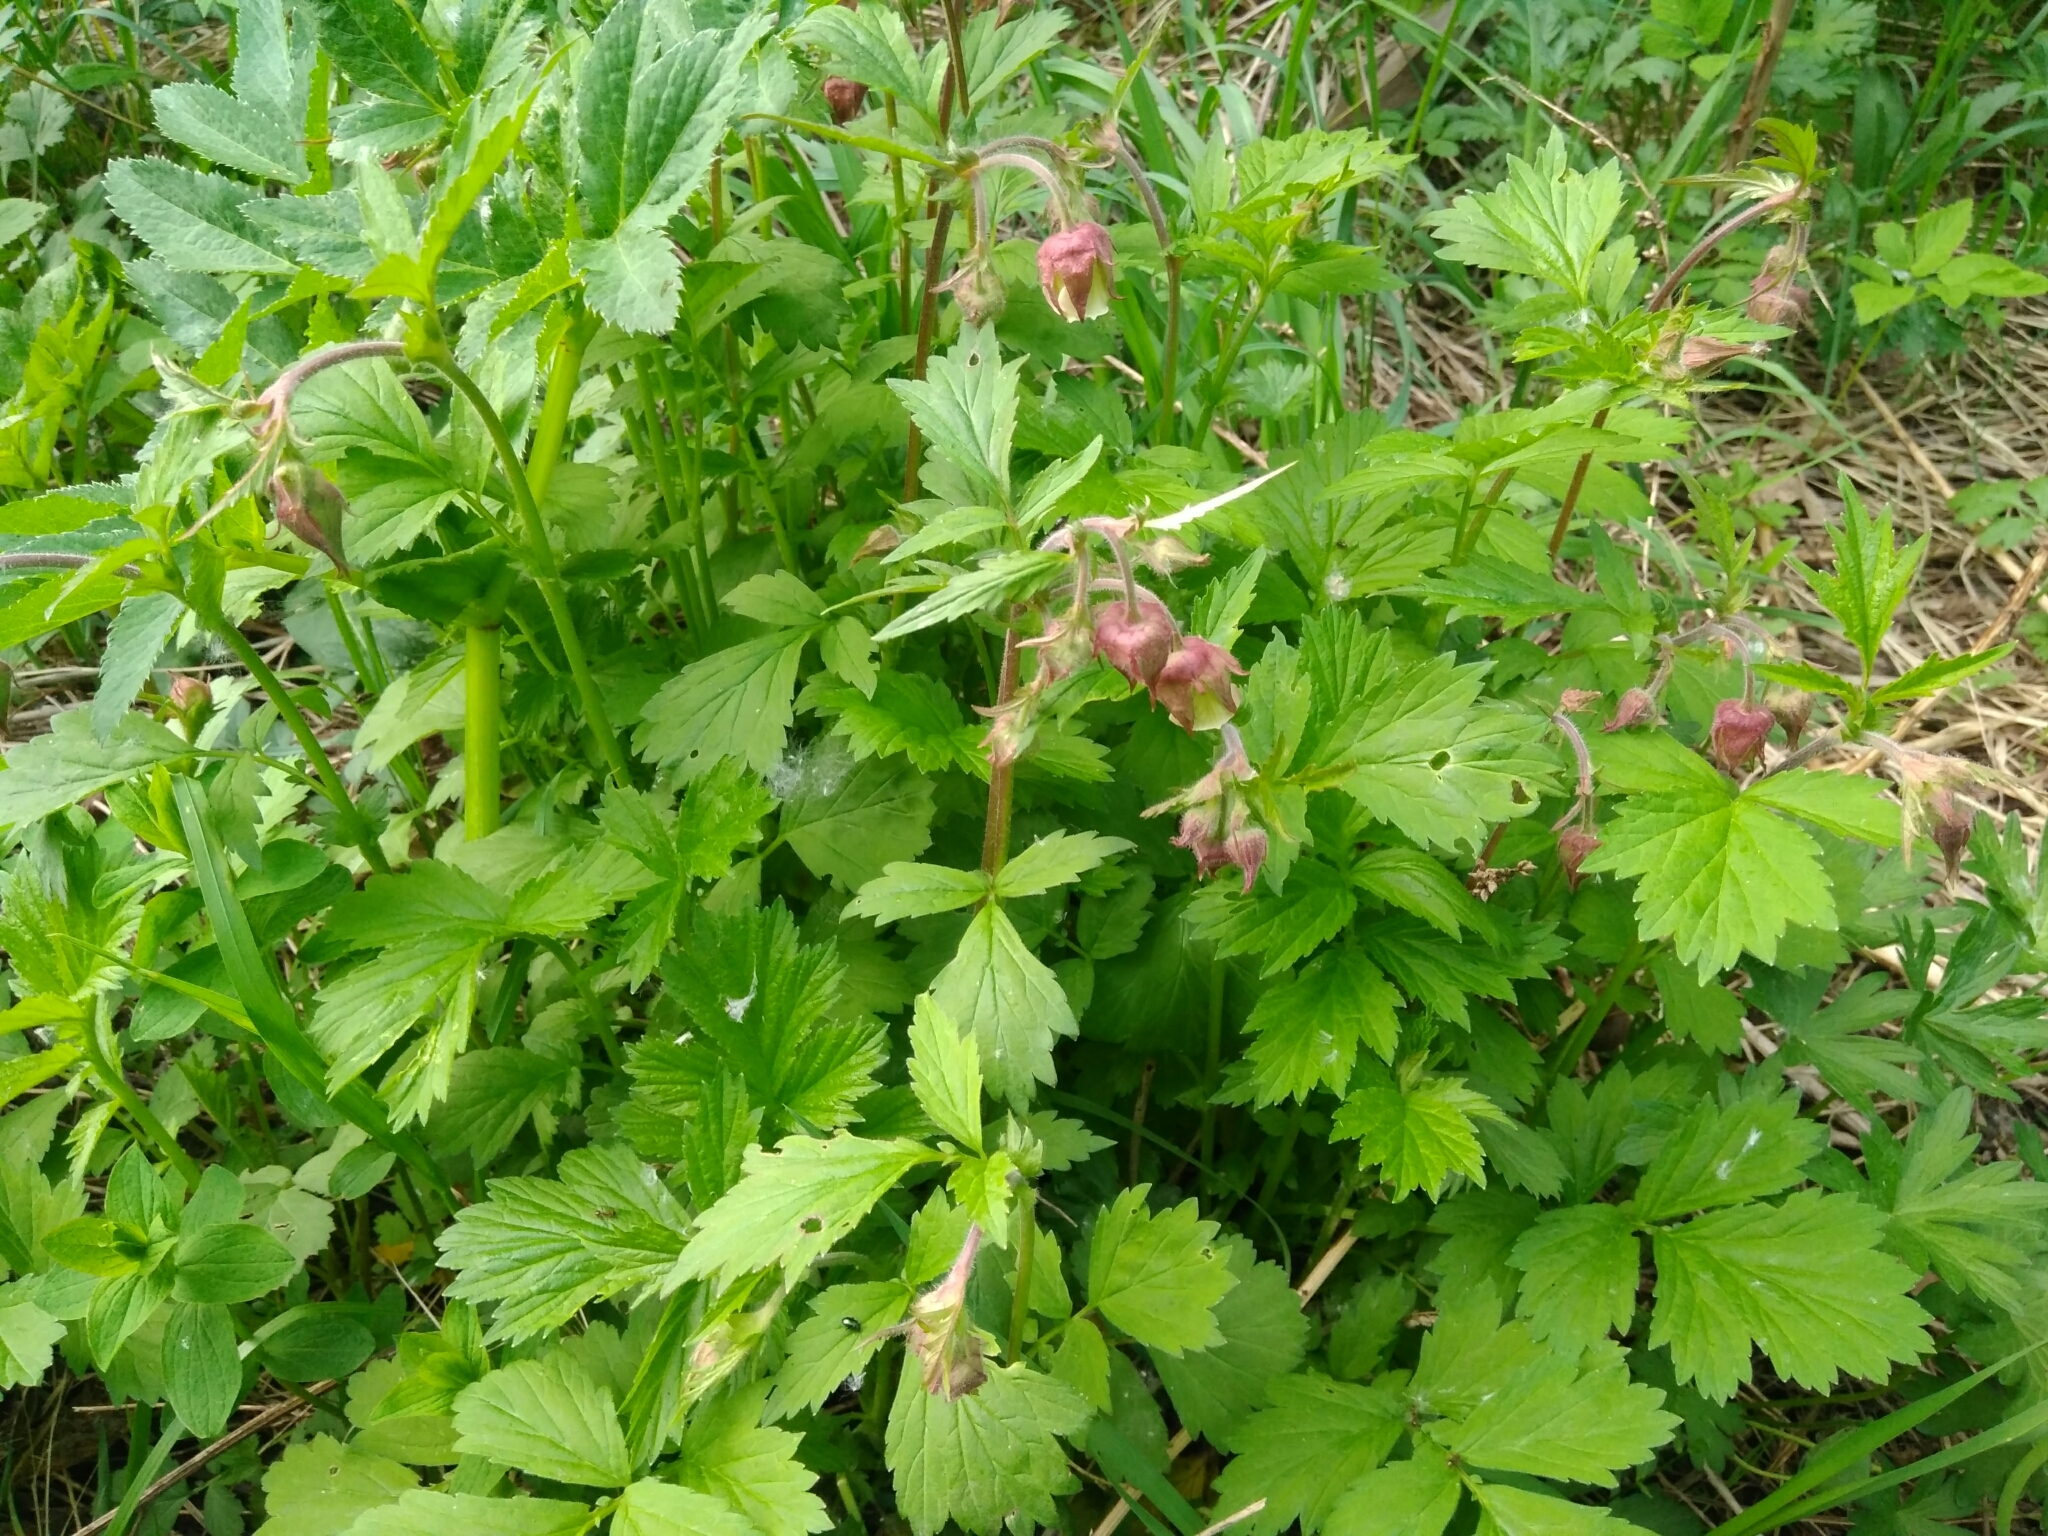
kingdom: Plantae
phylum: Tracheophyta
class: Magnoliopsida
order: Rosales
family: Rosaceae
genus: Geum
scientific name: Geum rivale
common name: Water avens
